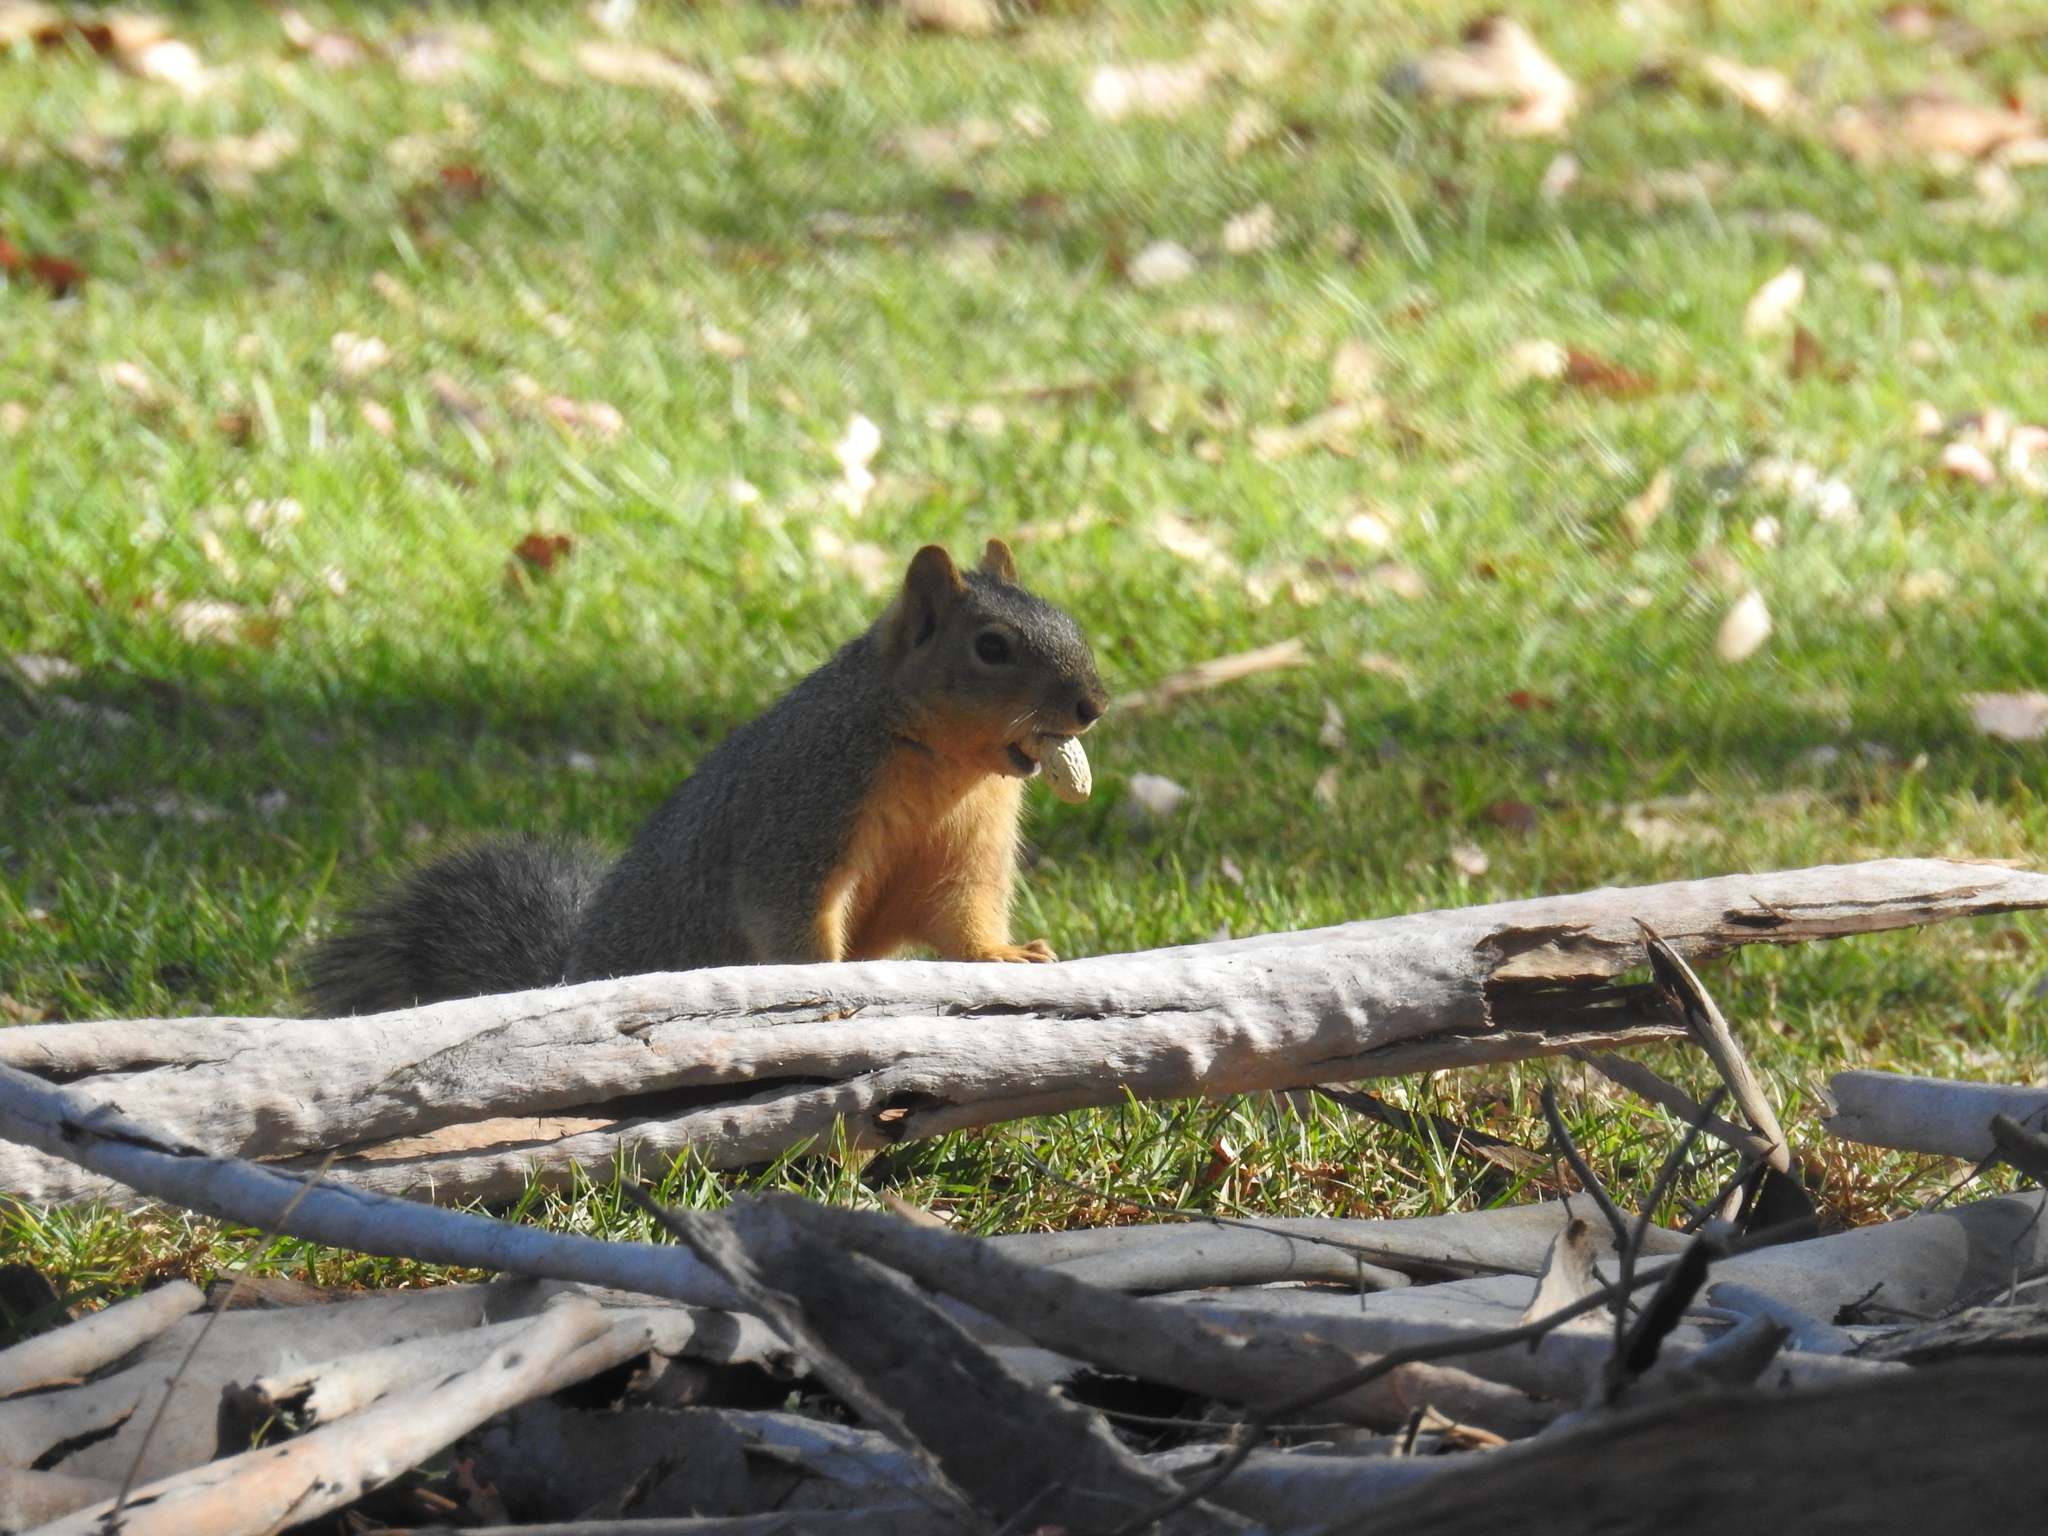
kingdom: Animalia
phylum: Chordata
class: Mammalia
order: Rodentia
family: Sciuridae
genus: Sciurus
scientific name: Sciurus niger
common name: Fox squirrel
